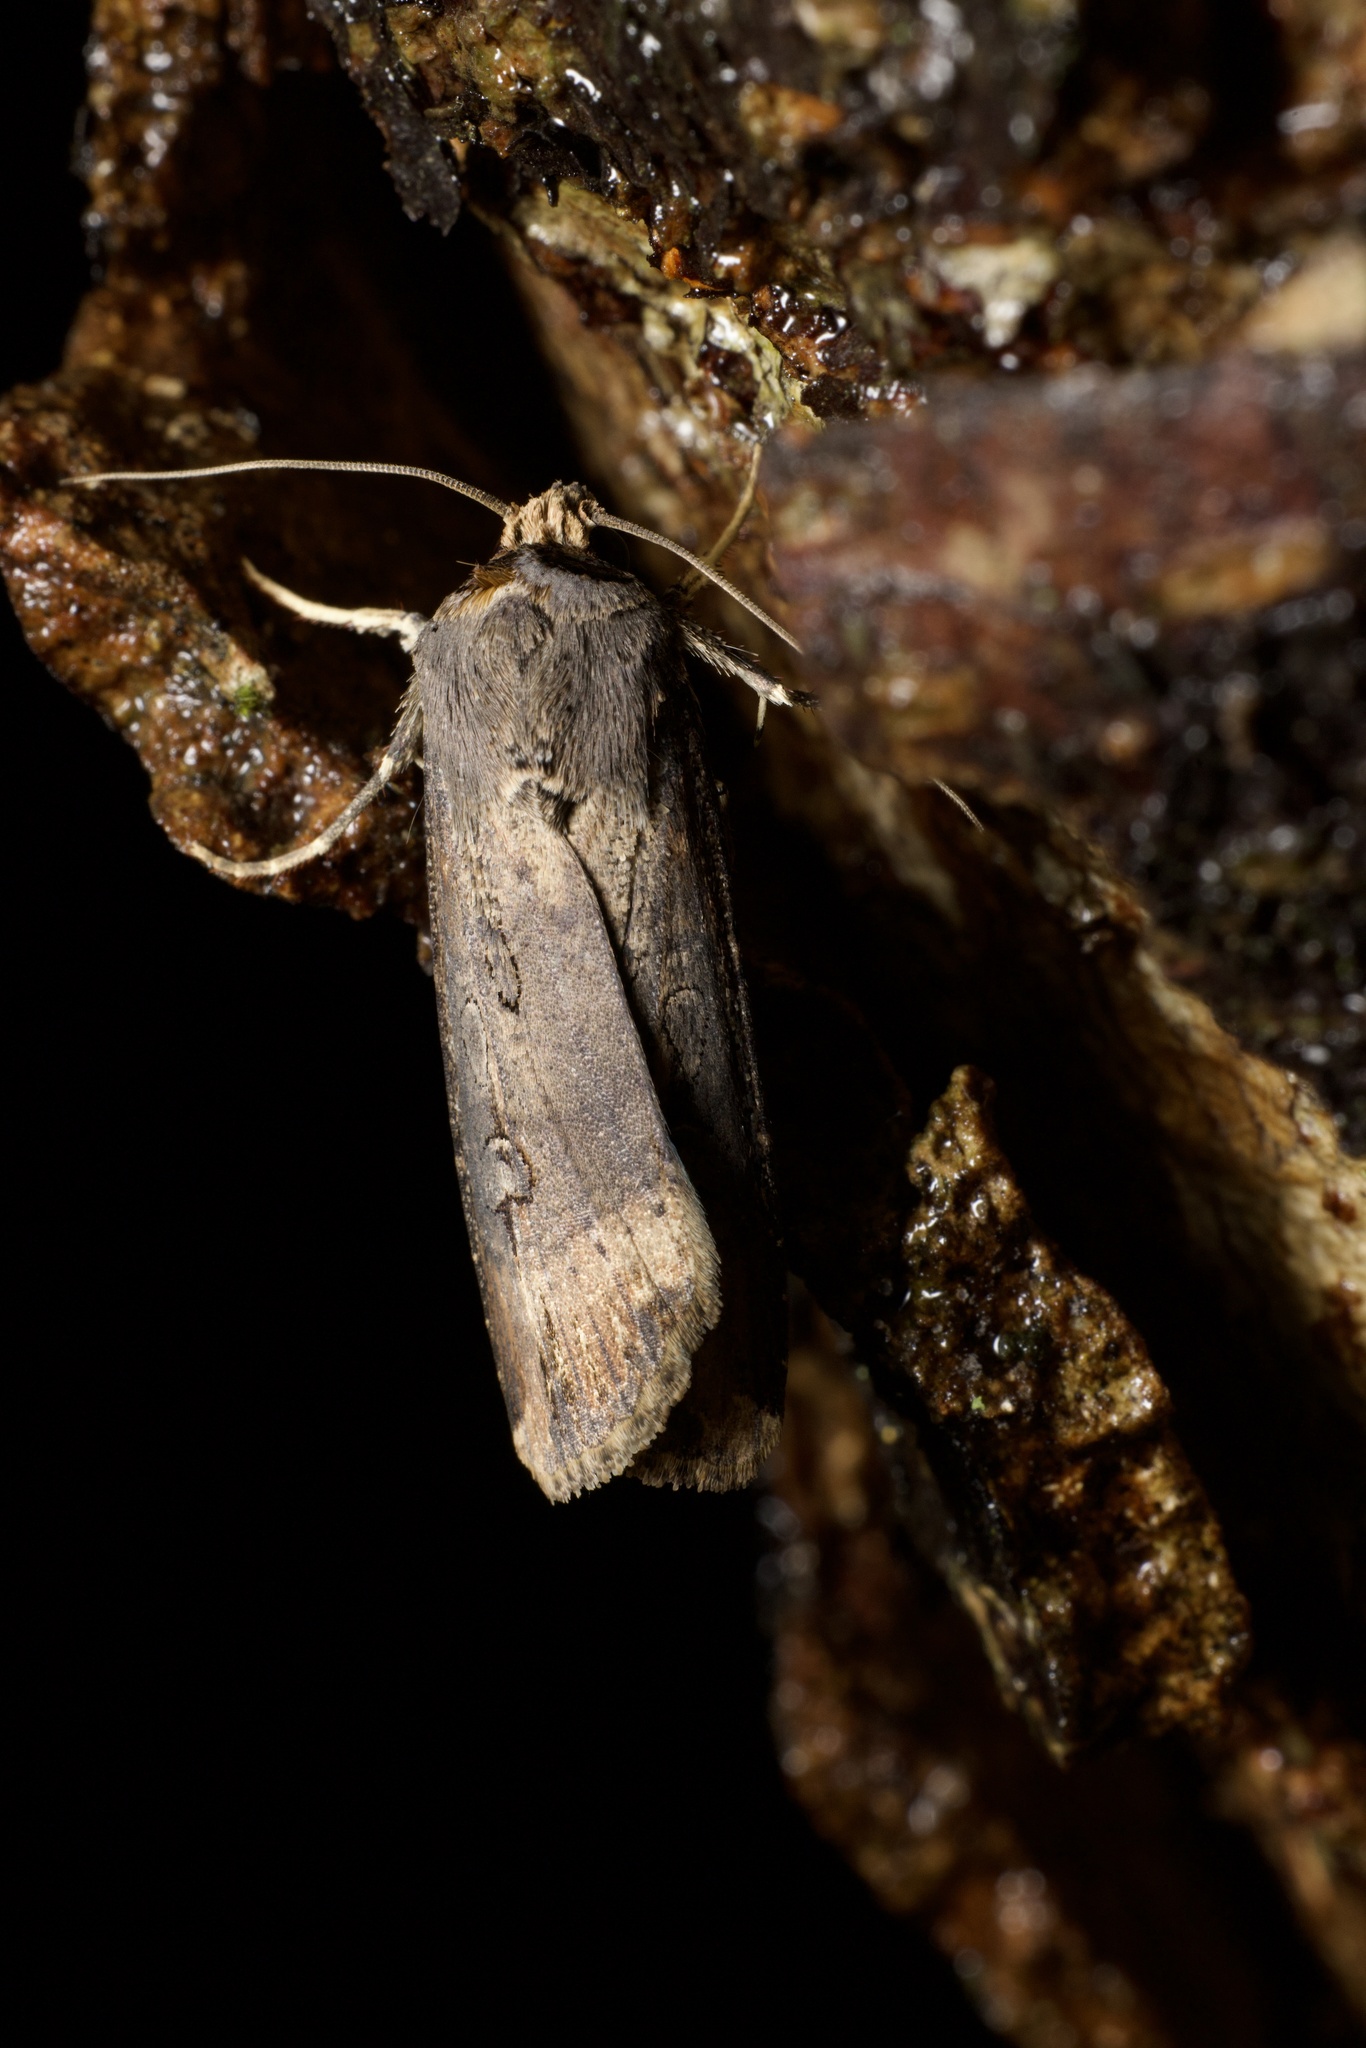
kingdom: Animalia
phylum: Arthropoda
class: Insecta
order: Lepidoptera
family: Noctuidae
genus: Agrotis
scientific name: Agrotis ipsilon
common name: Dark sword-grass
